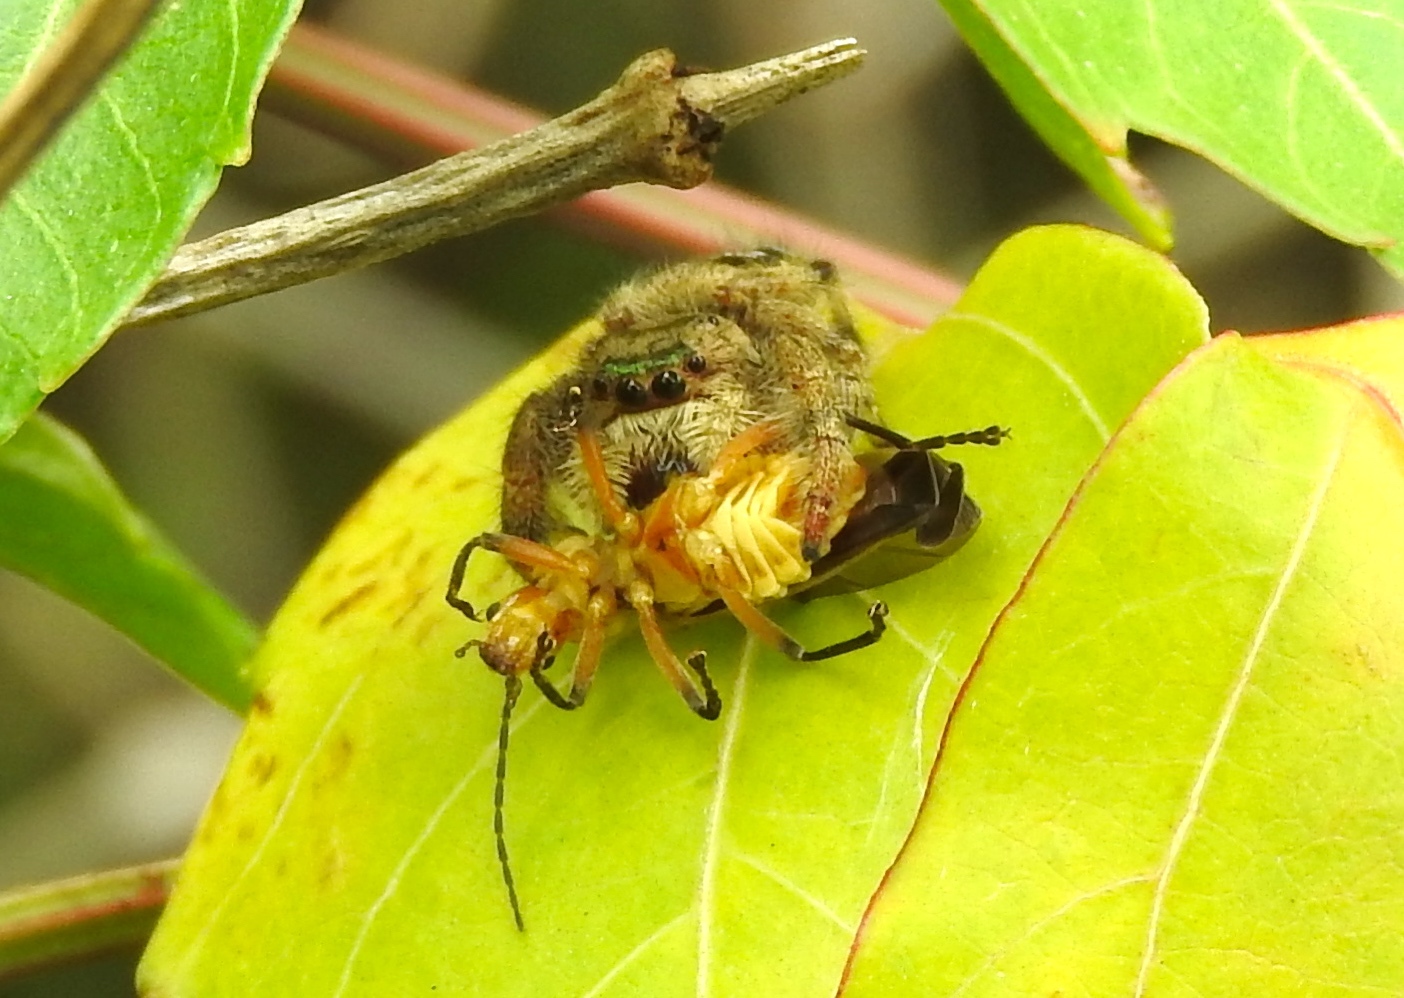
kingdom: Animalia
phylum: Arthropoda
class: Arachnida
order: Araneae
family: Salticidae
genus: Paraphidippus
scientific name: Paraphidippus aurantius
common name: Jumping spiders
